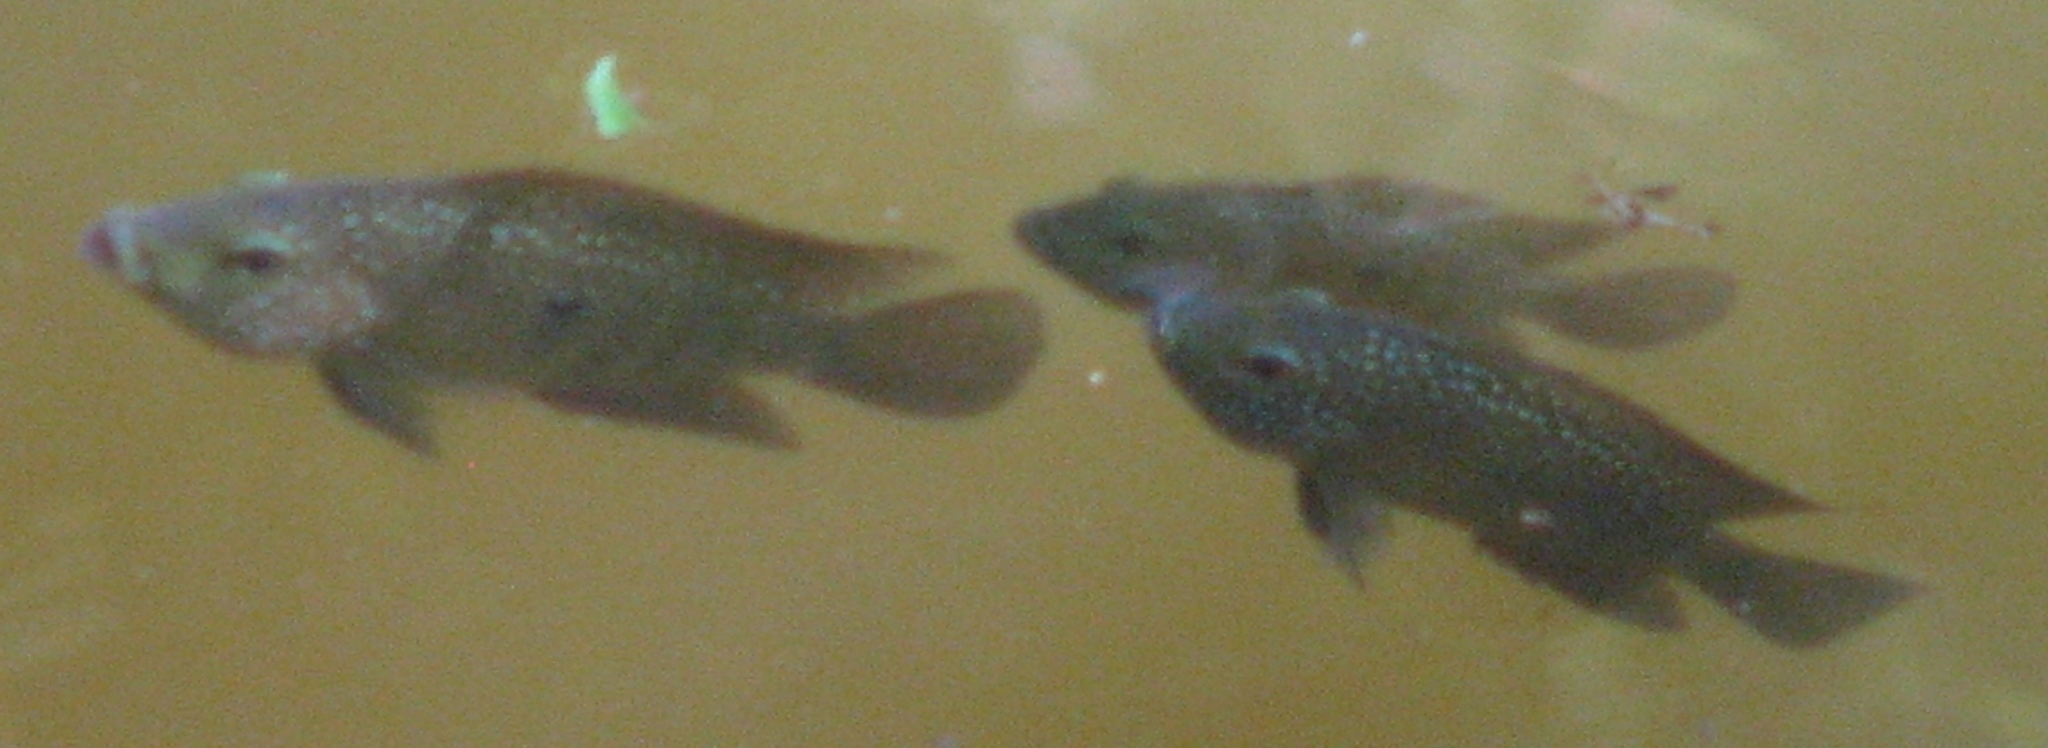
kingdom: Animalia
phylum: Chordata
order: Perciformes
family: Cichlidae
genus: Herichthys
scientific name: Herichthys cyanoguttatus
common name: Rio grande cichlid
